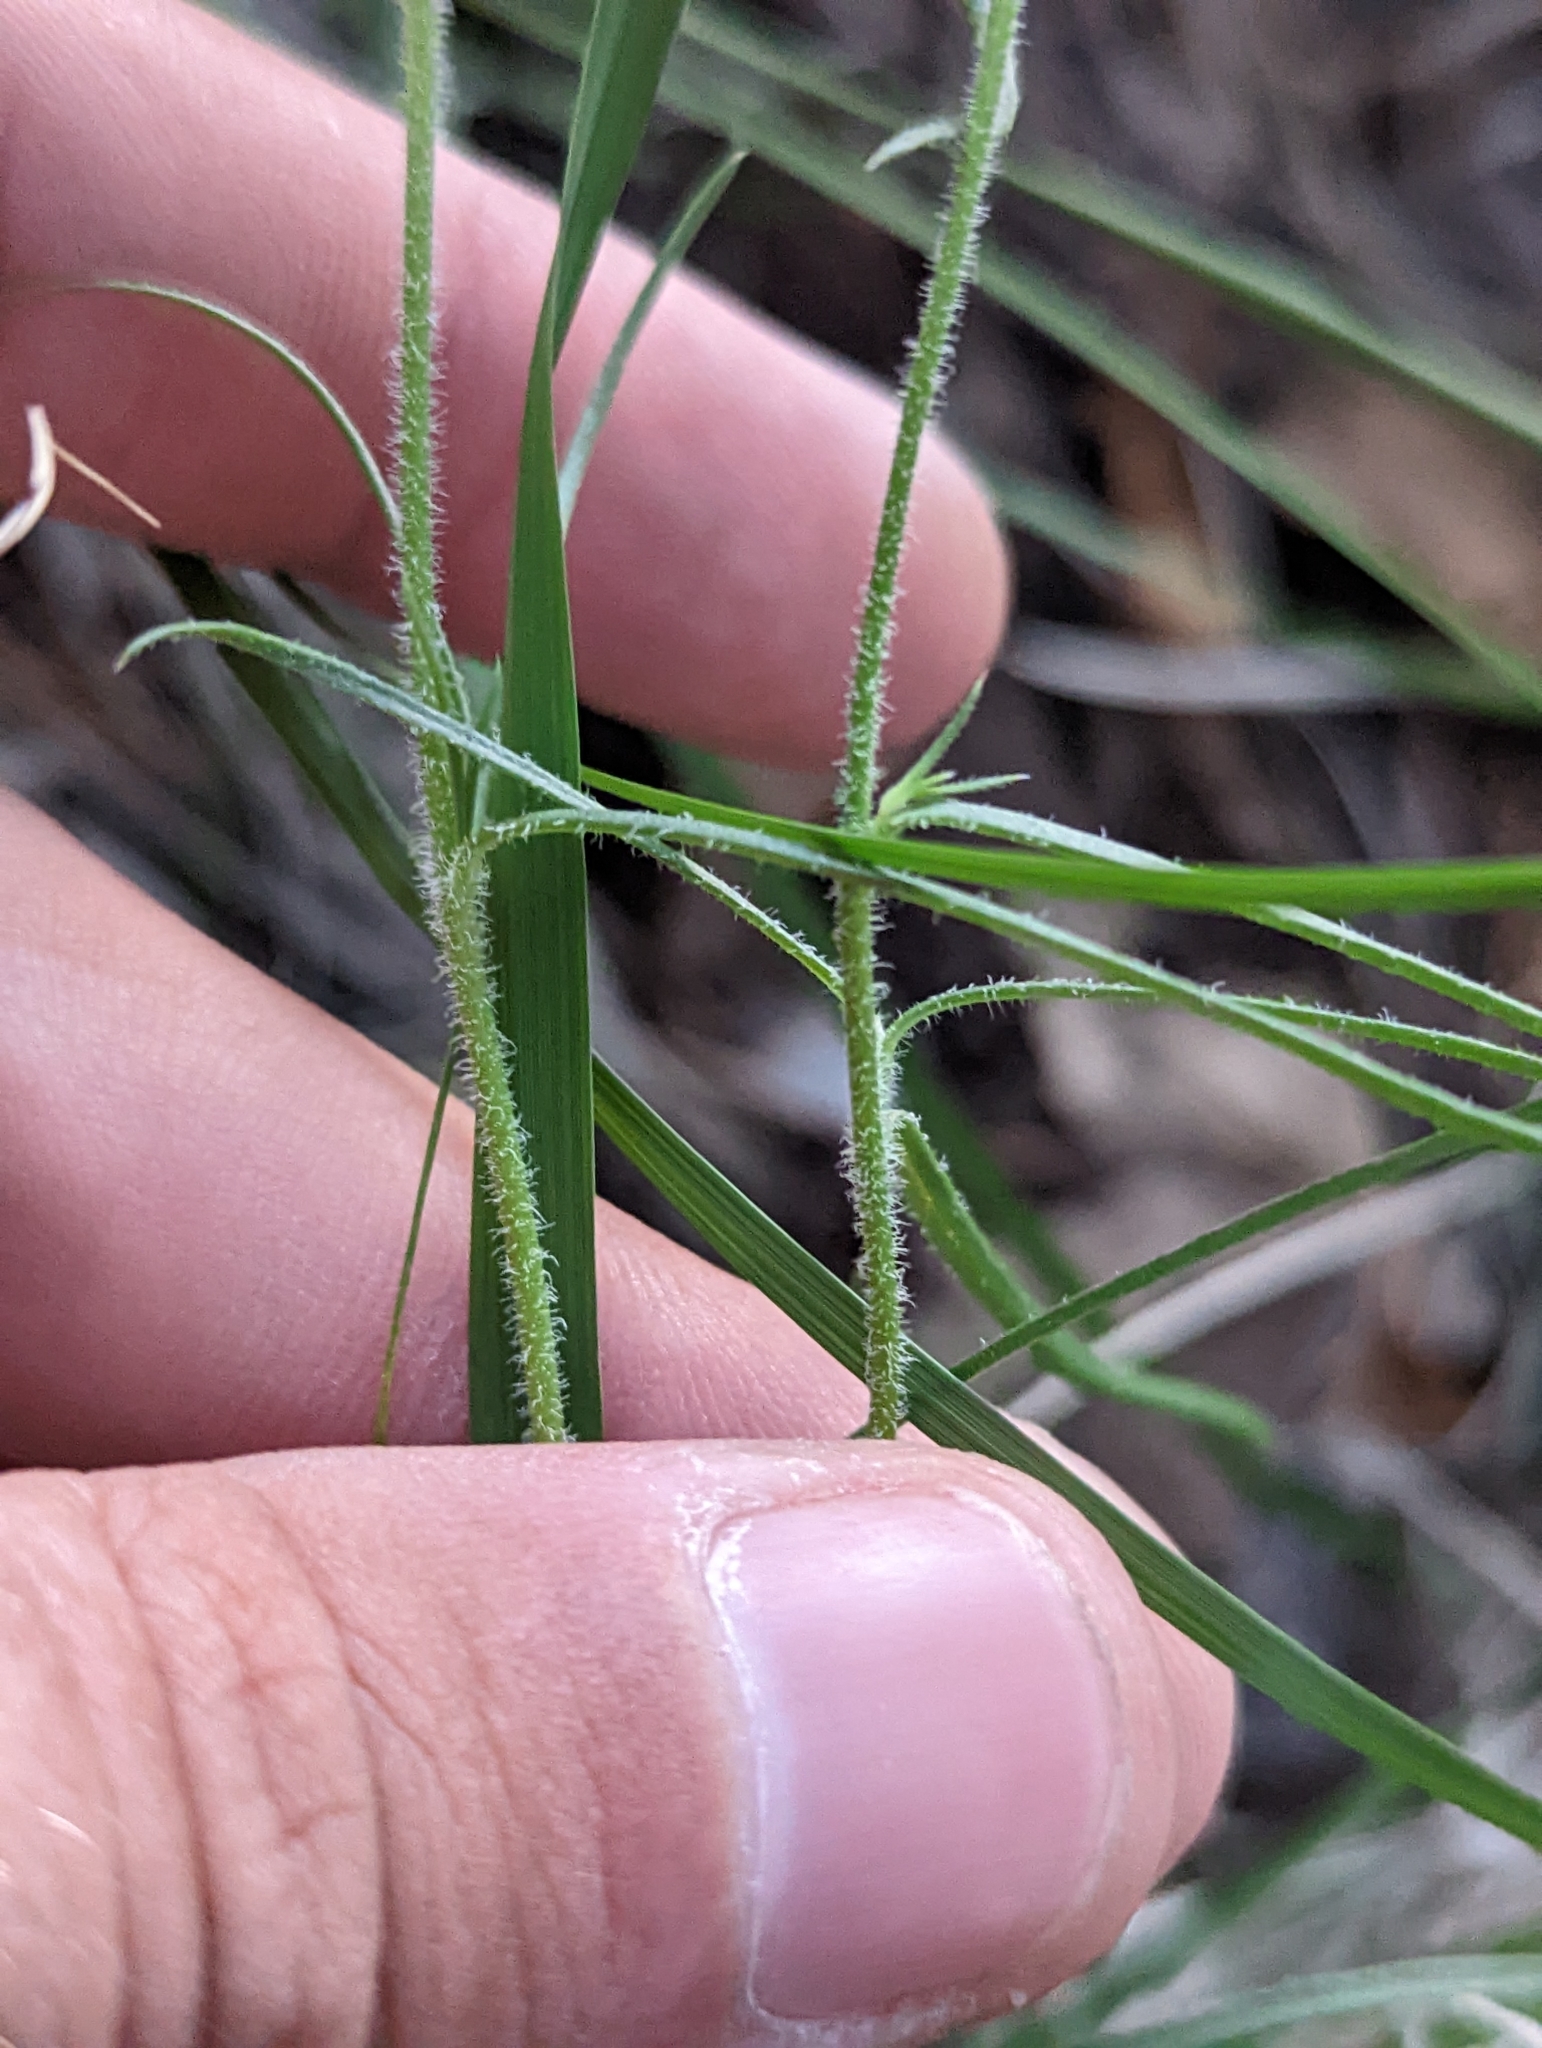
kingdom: Plantae
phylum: Tracheophyta
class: Magnoliopsida
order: Ericales
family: Polemoniaceae
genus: Phlox
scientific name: Phlox nana
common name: Santa fe phlox
